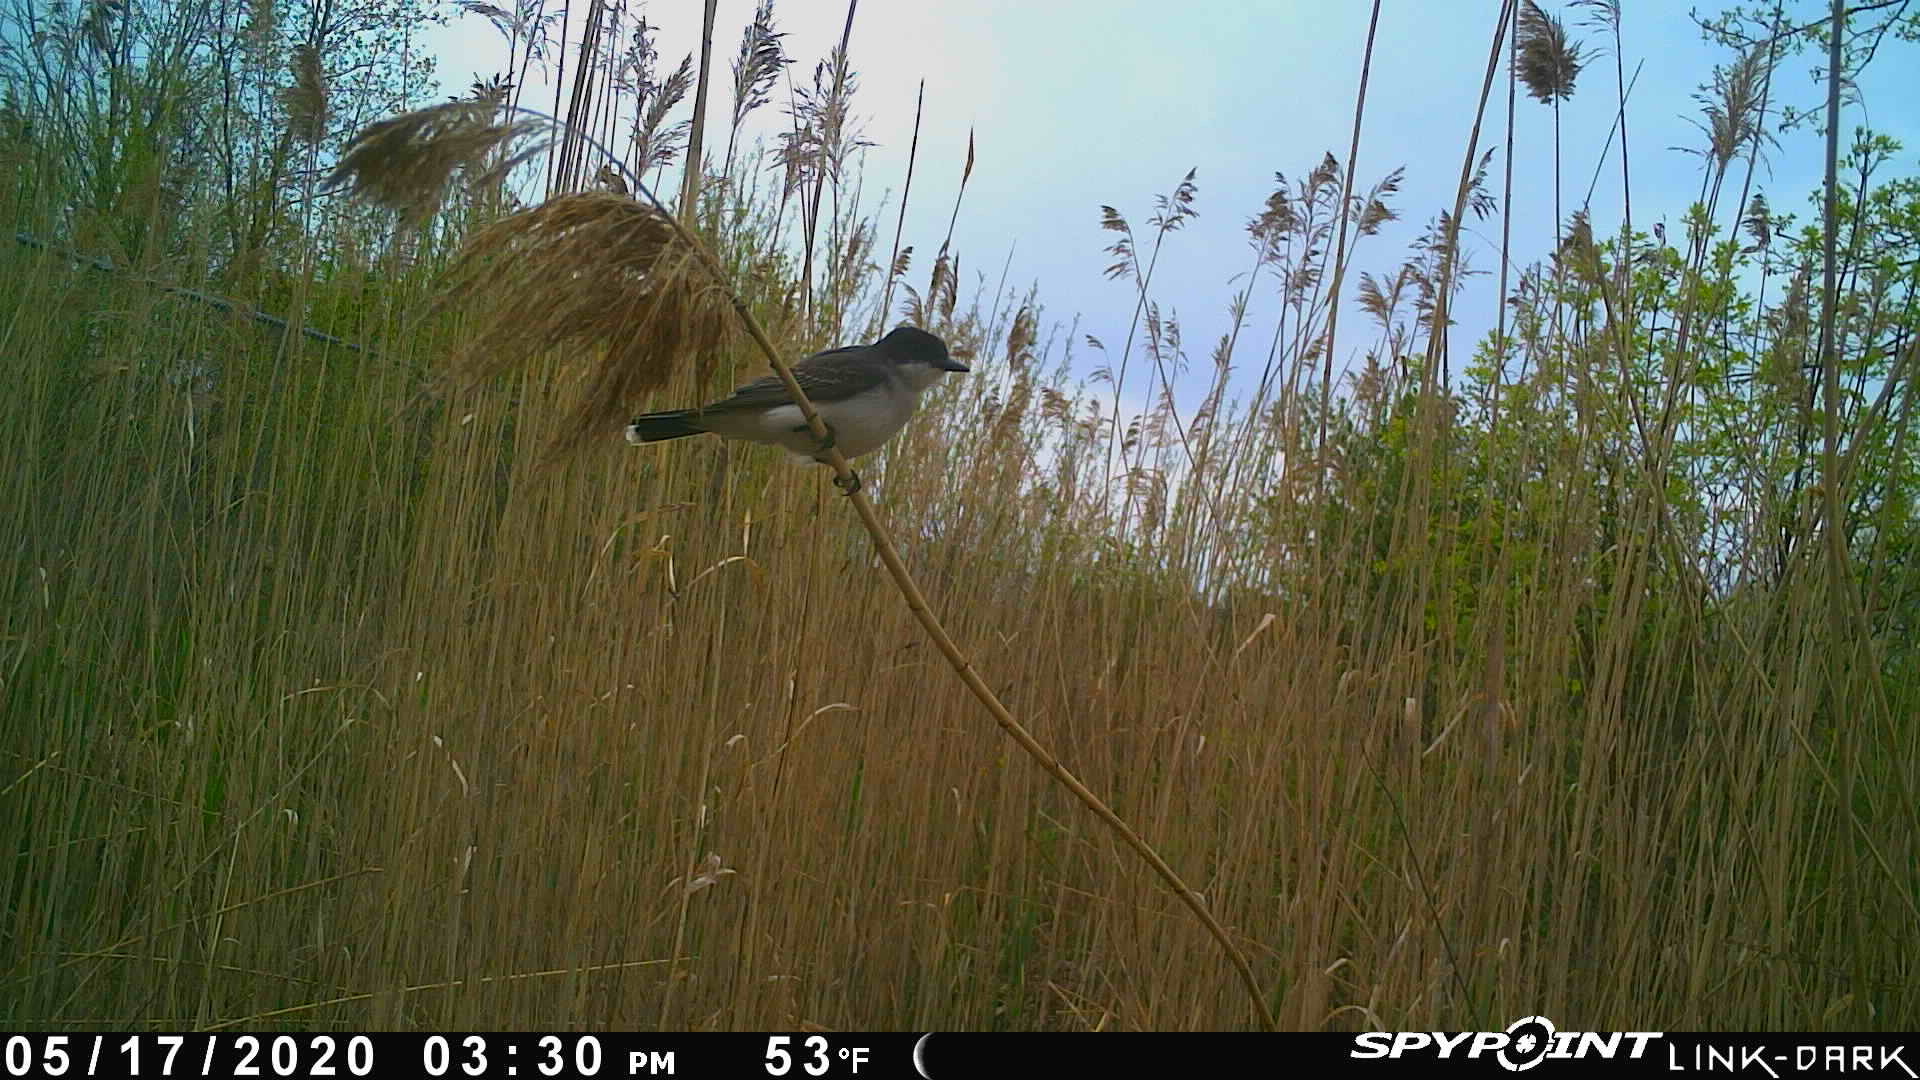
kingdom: Animalia
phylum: Chordata
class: Aves
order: Passeriformes
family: Tyrannidae
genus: Tyrannus
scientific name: Tyrannus tyrannus
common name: Eastern kingbird
